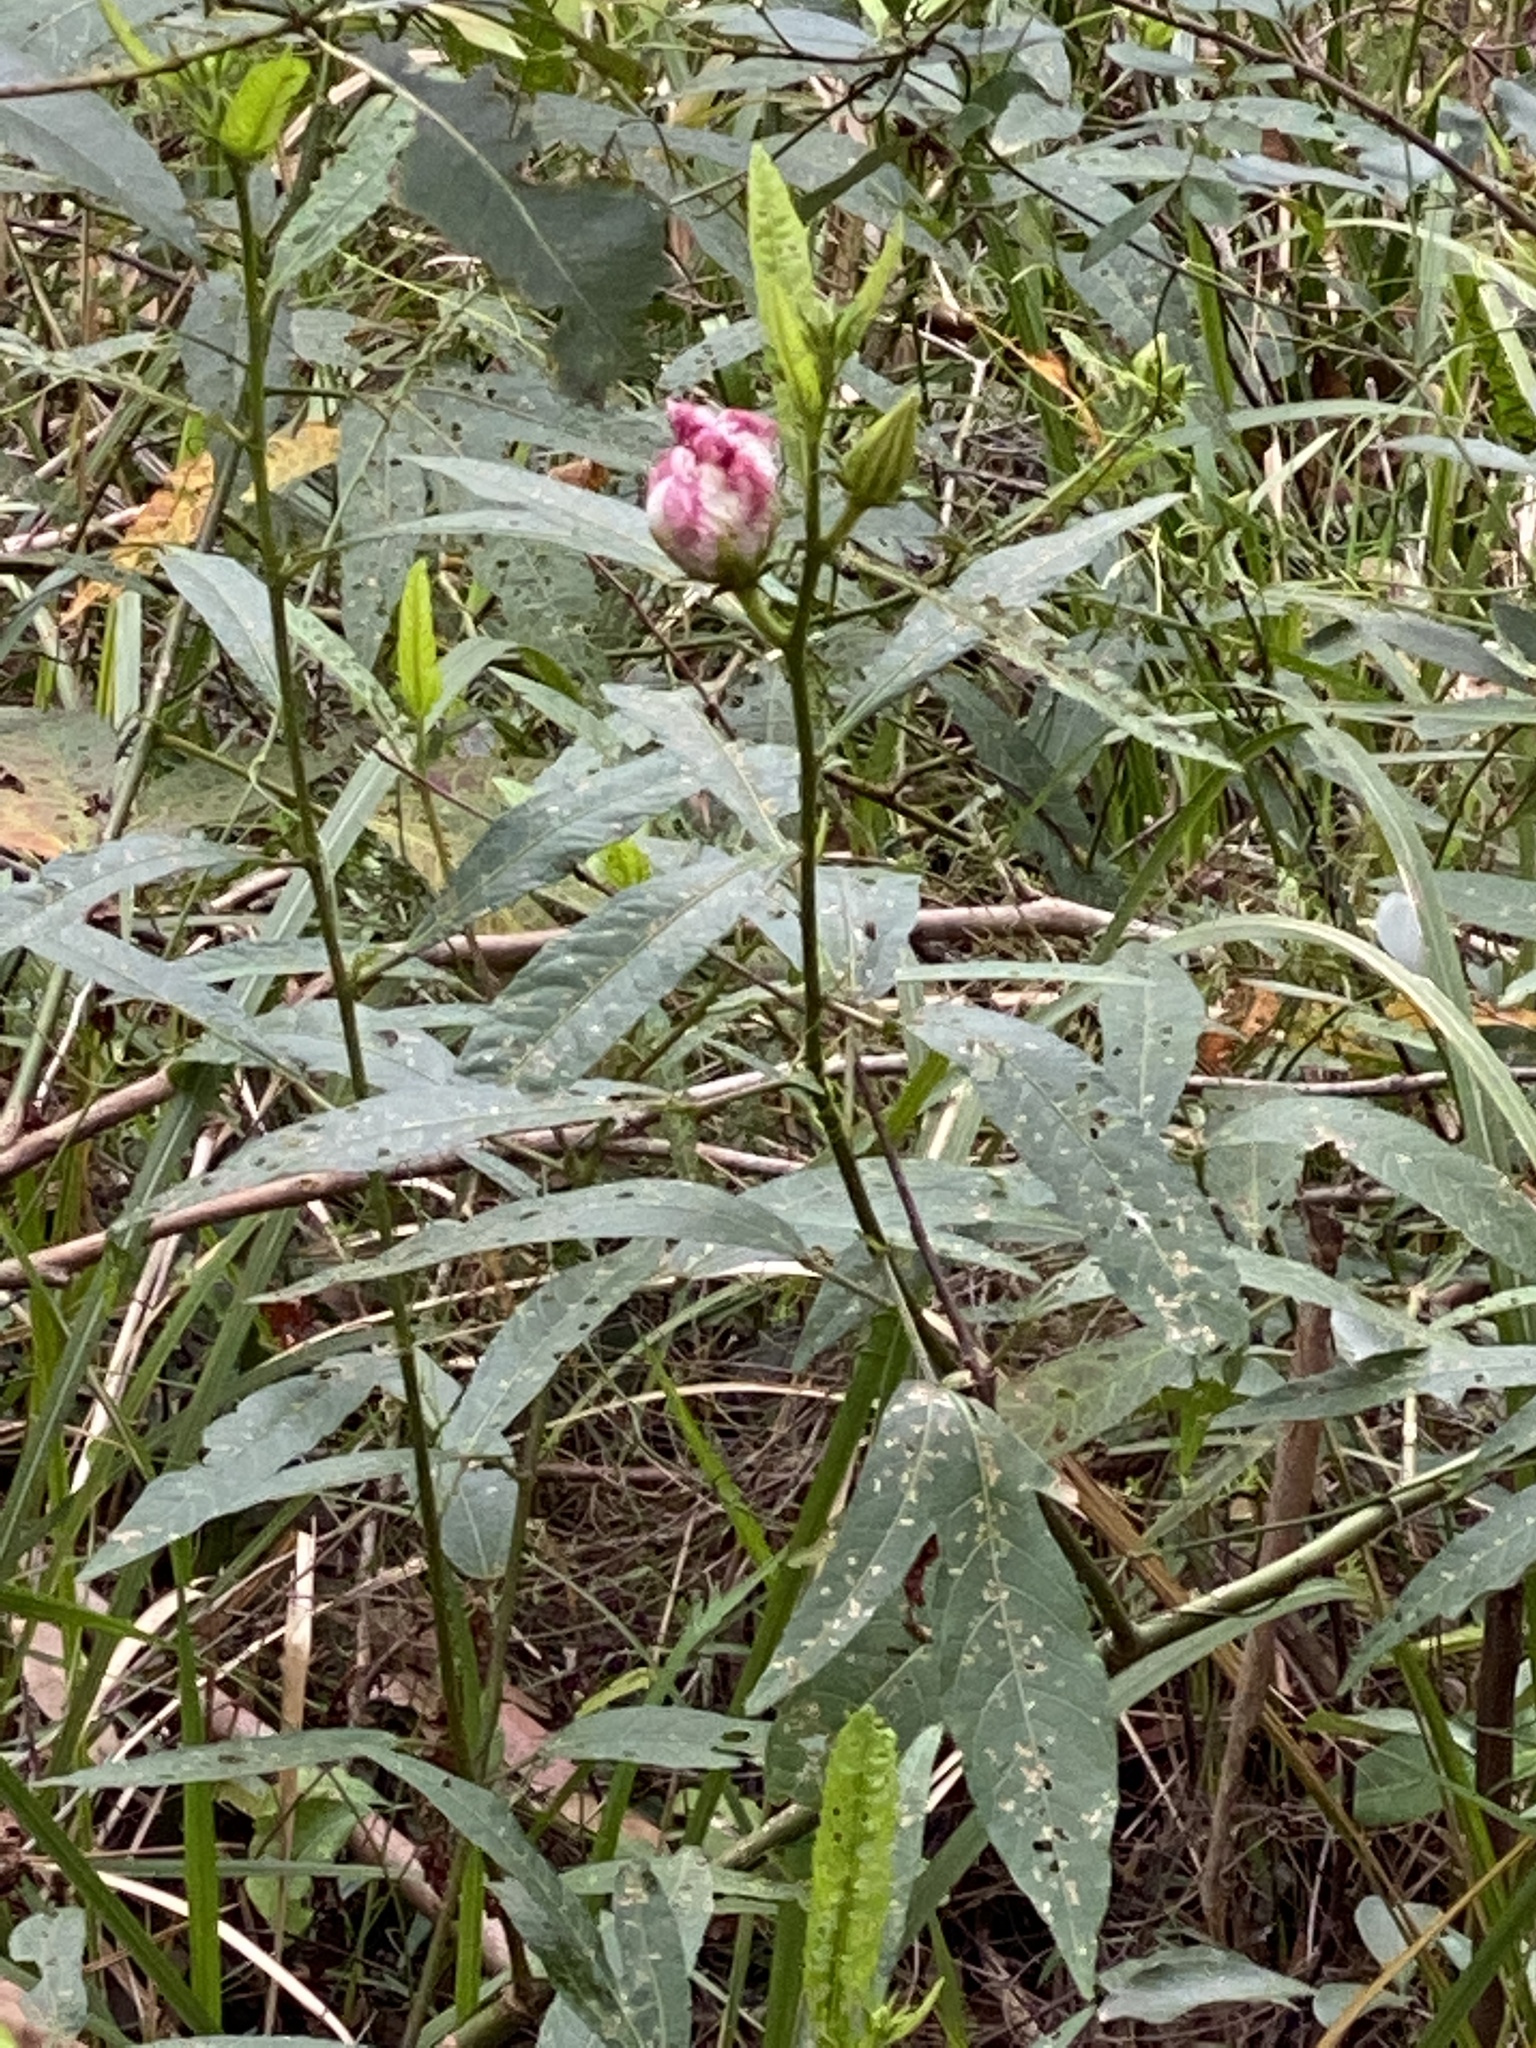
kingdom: Plantae
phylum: Tracheophyta
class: Magnoliopsida
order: Malvales
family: Malvaceae
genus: Hibiscus
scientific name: Hibiscus heterophyllus
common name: Queensland-sorrel
